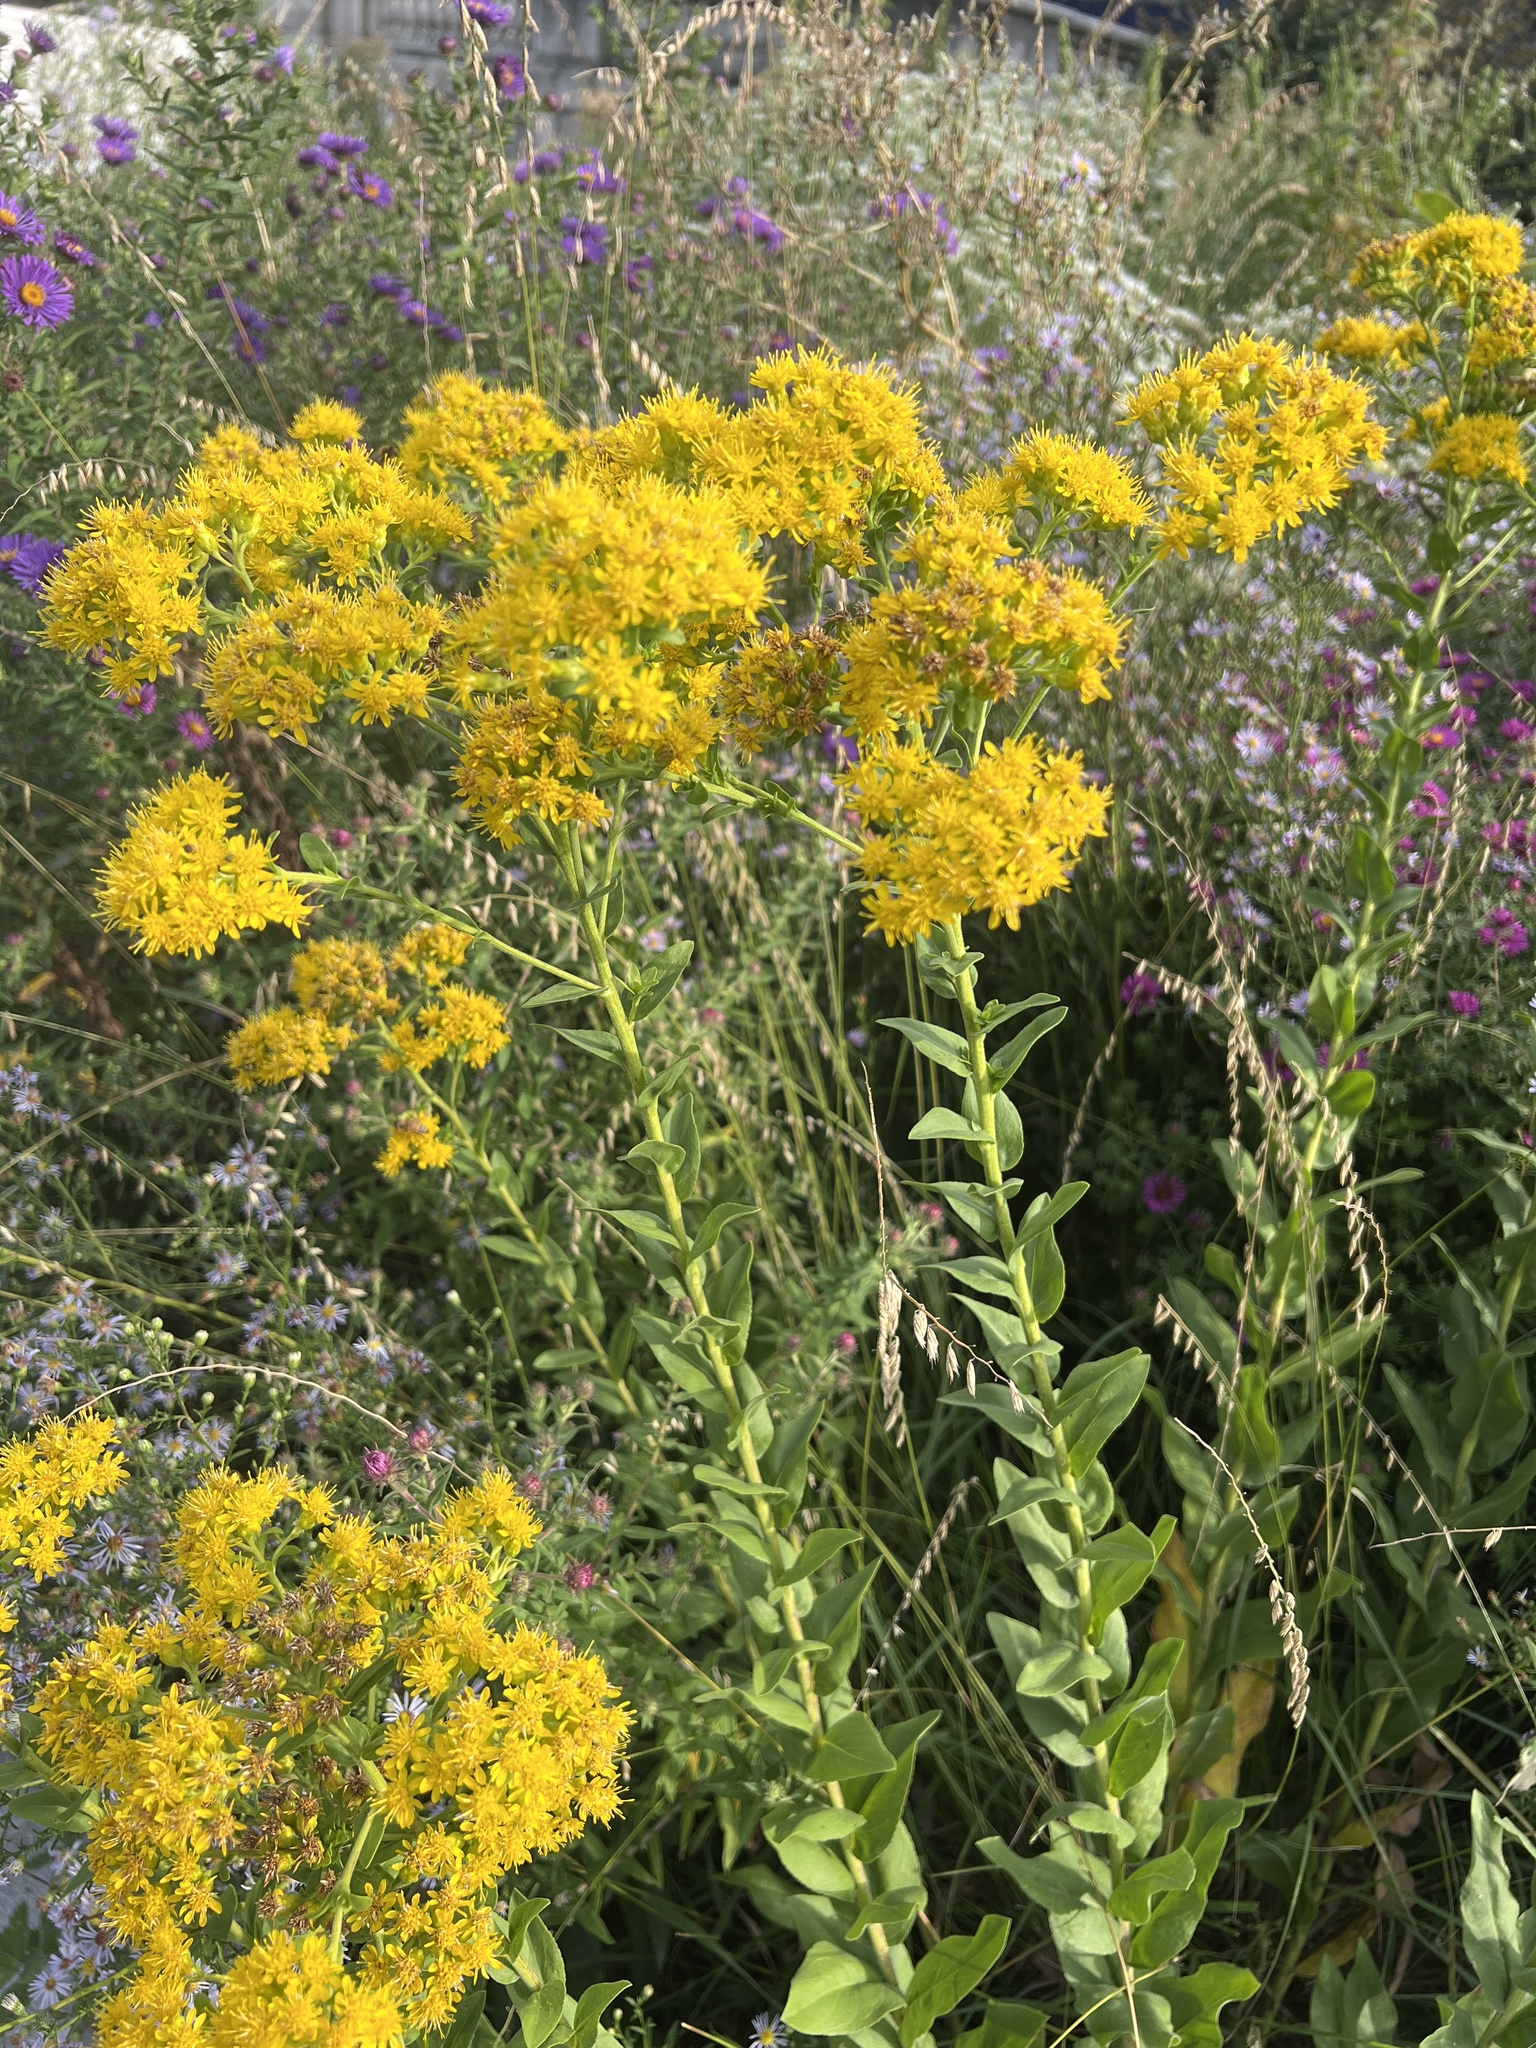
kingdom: Plantae
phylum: Tracheophyta
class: Magnoliopsida
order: Asterales
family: Asteraceae
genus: Solidago
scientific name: Solidago rigida
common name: Rigid goldenrod
